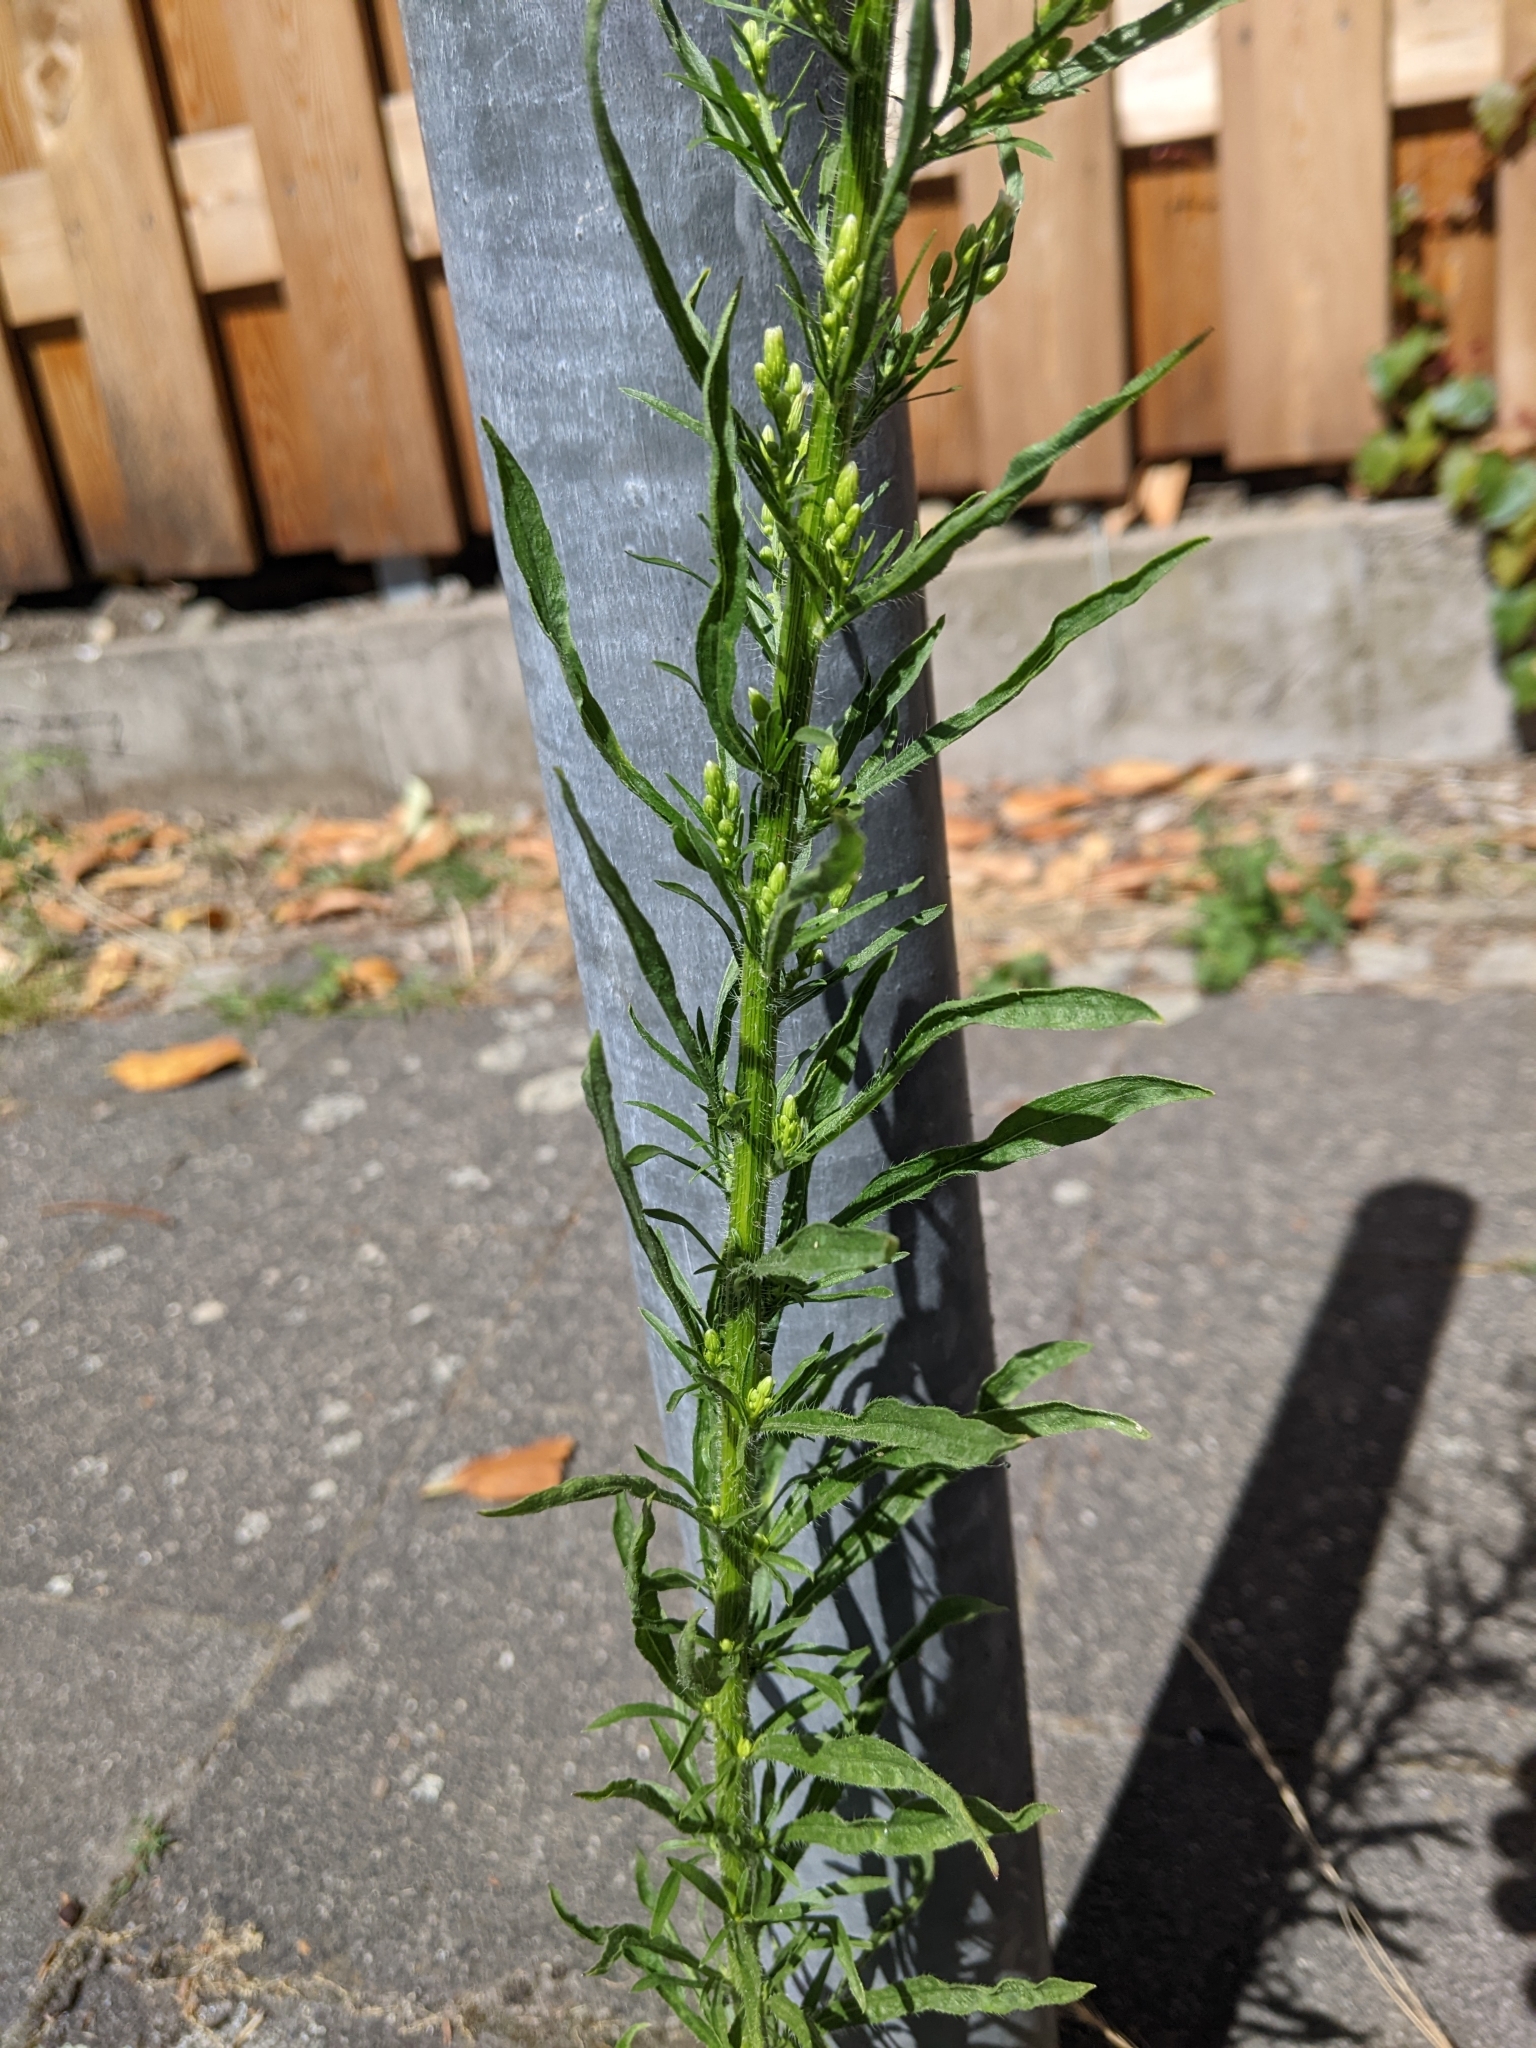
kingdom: Plantae
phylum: Tracheophyta
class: Magnoliopsida
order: Asterales
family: Asteraceae
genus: Erigeron
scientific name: Erigeron canadensis
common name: Canadian fleabane
